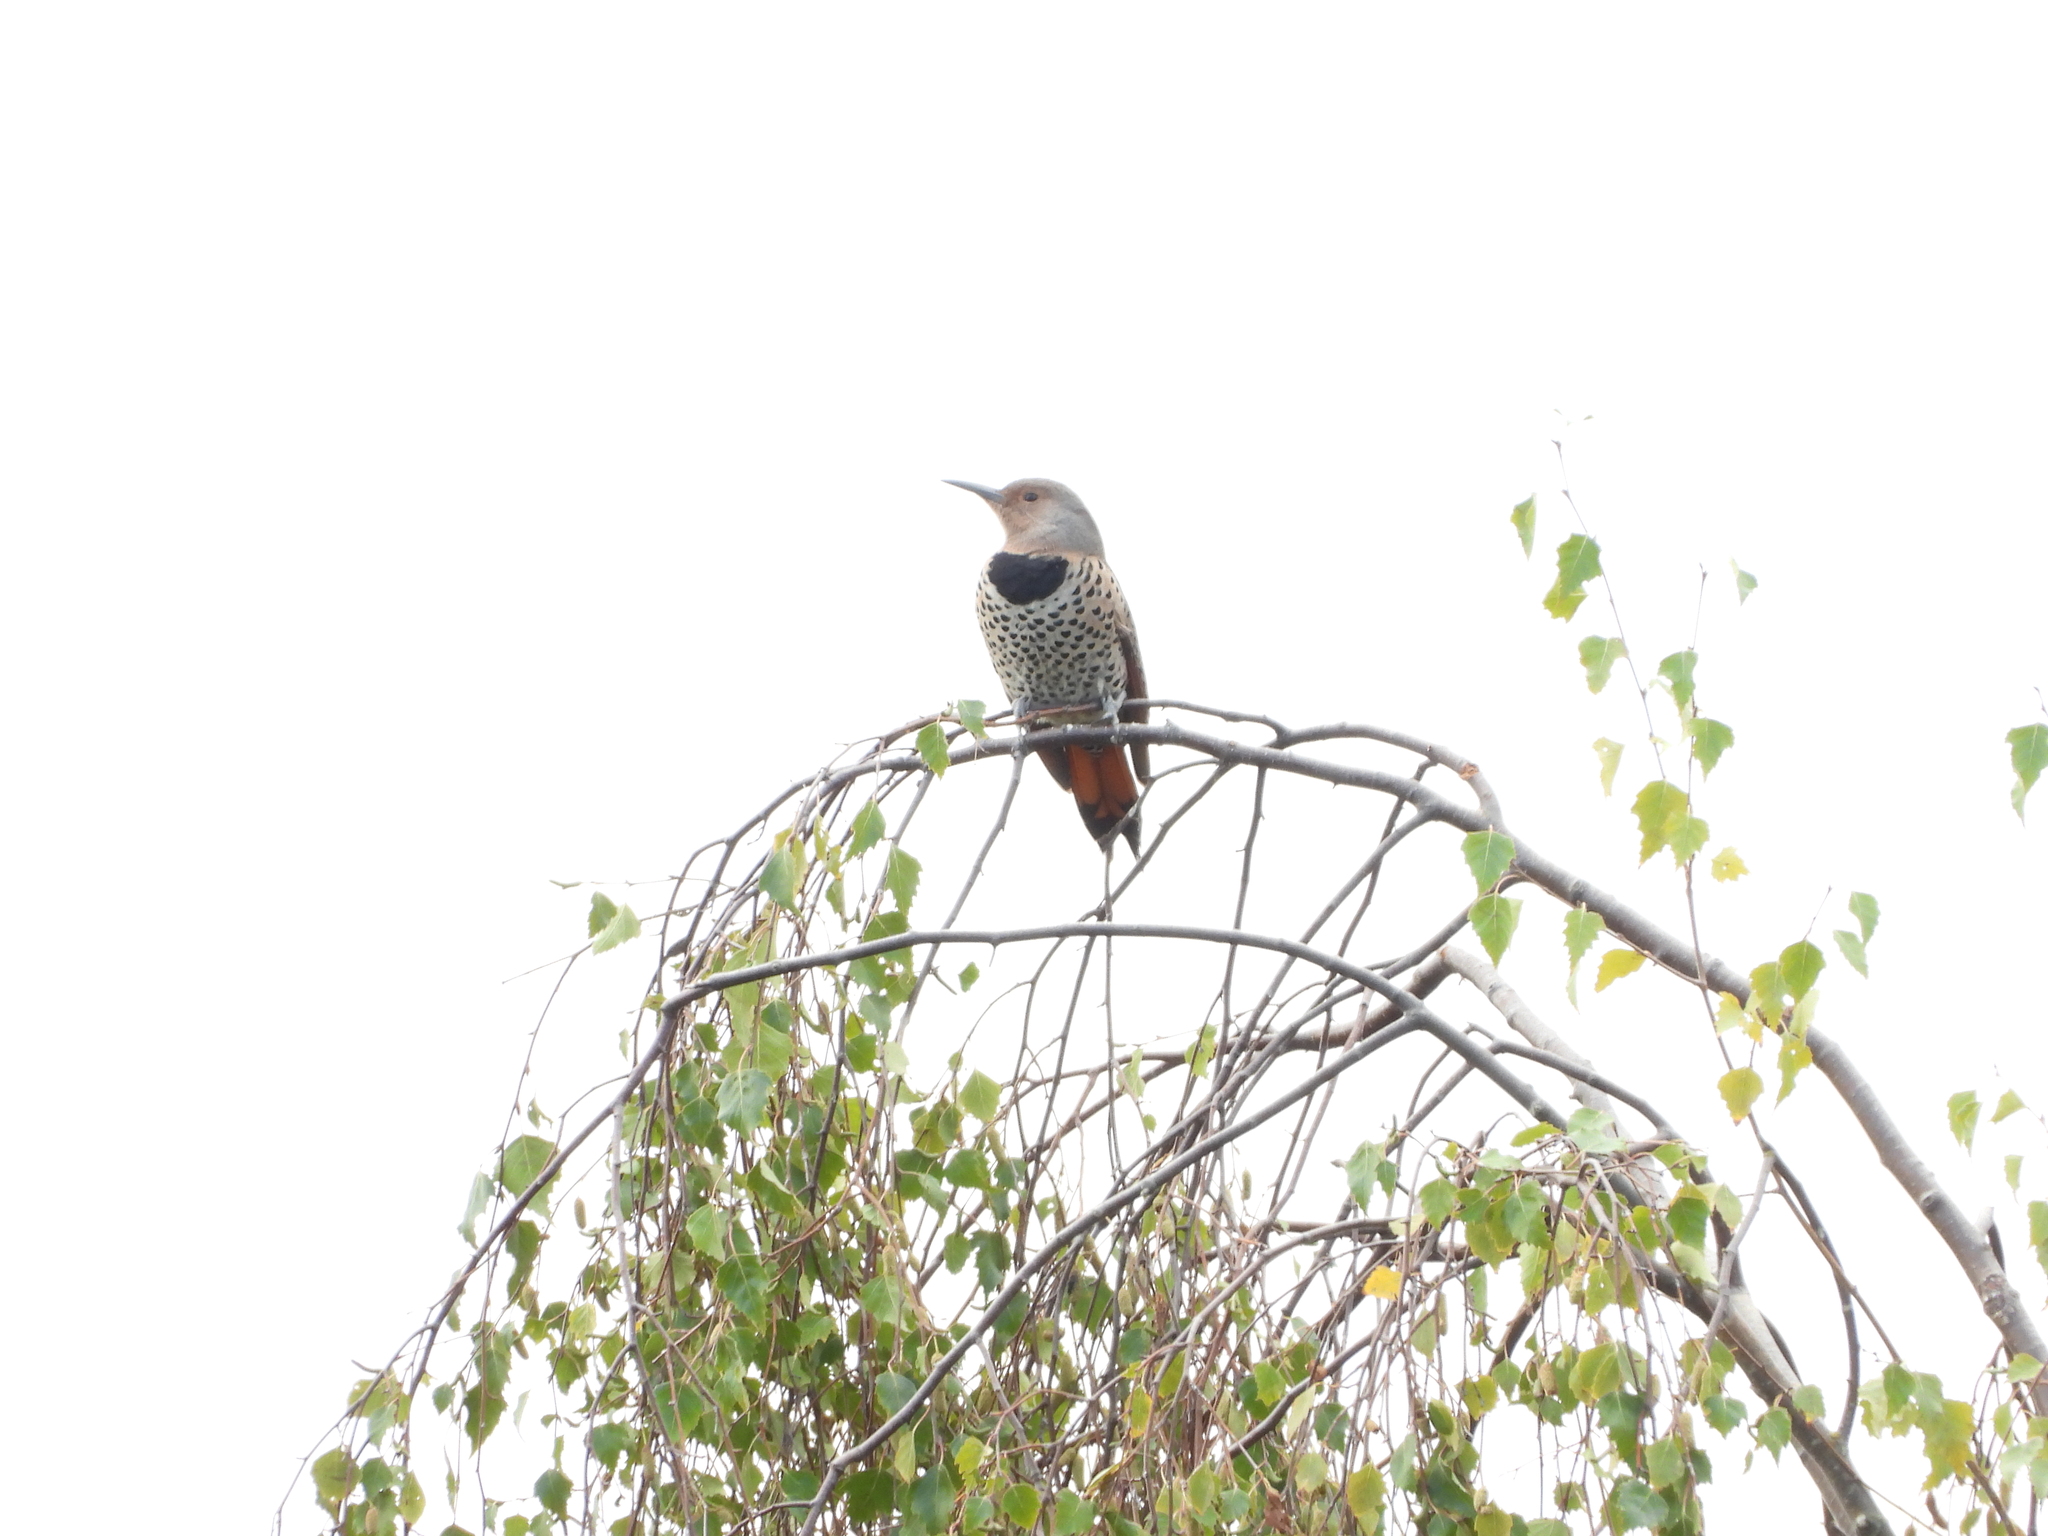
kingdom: Animalia
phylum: Chordata
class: Aves
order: Piciformes
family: Picidae
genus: Colaptes
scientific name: Colaptes auratus
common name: Northern flicker
